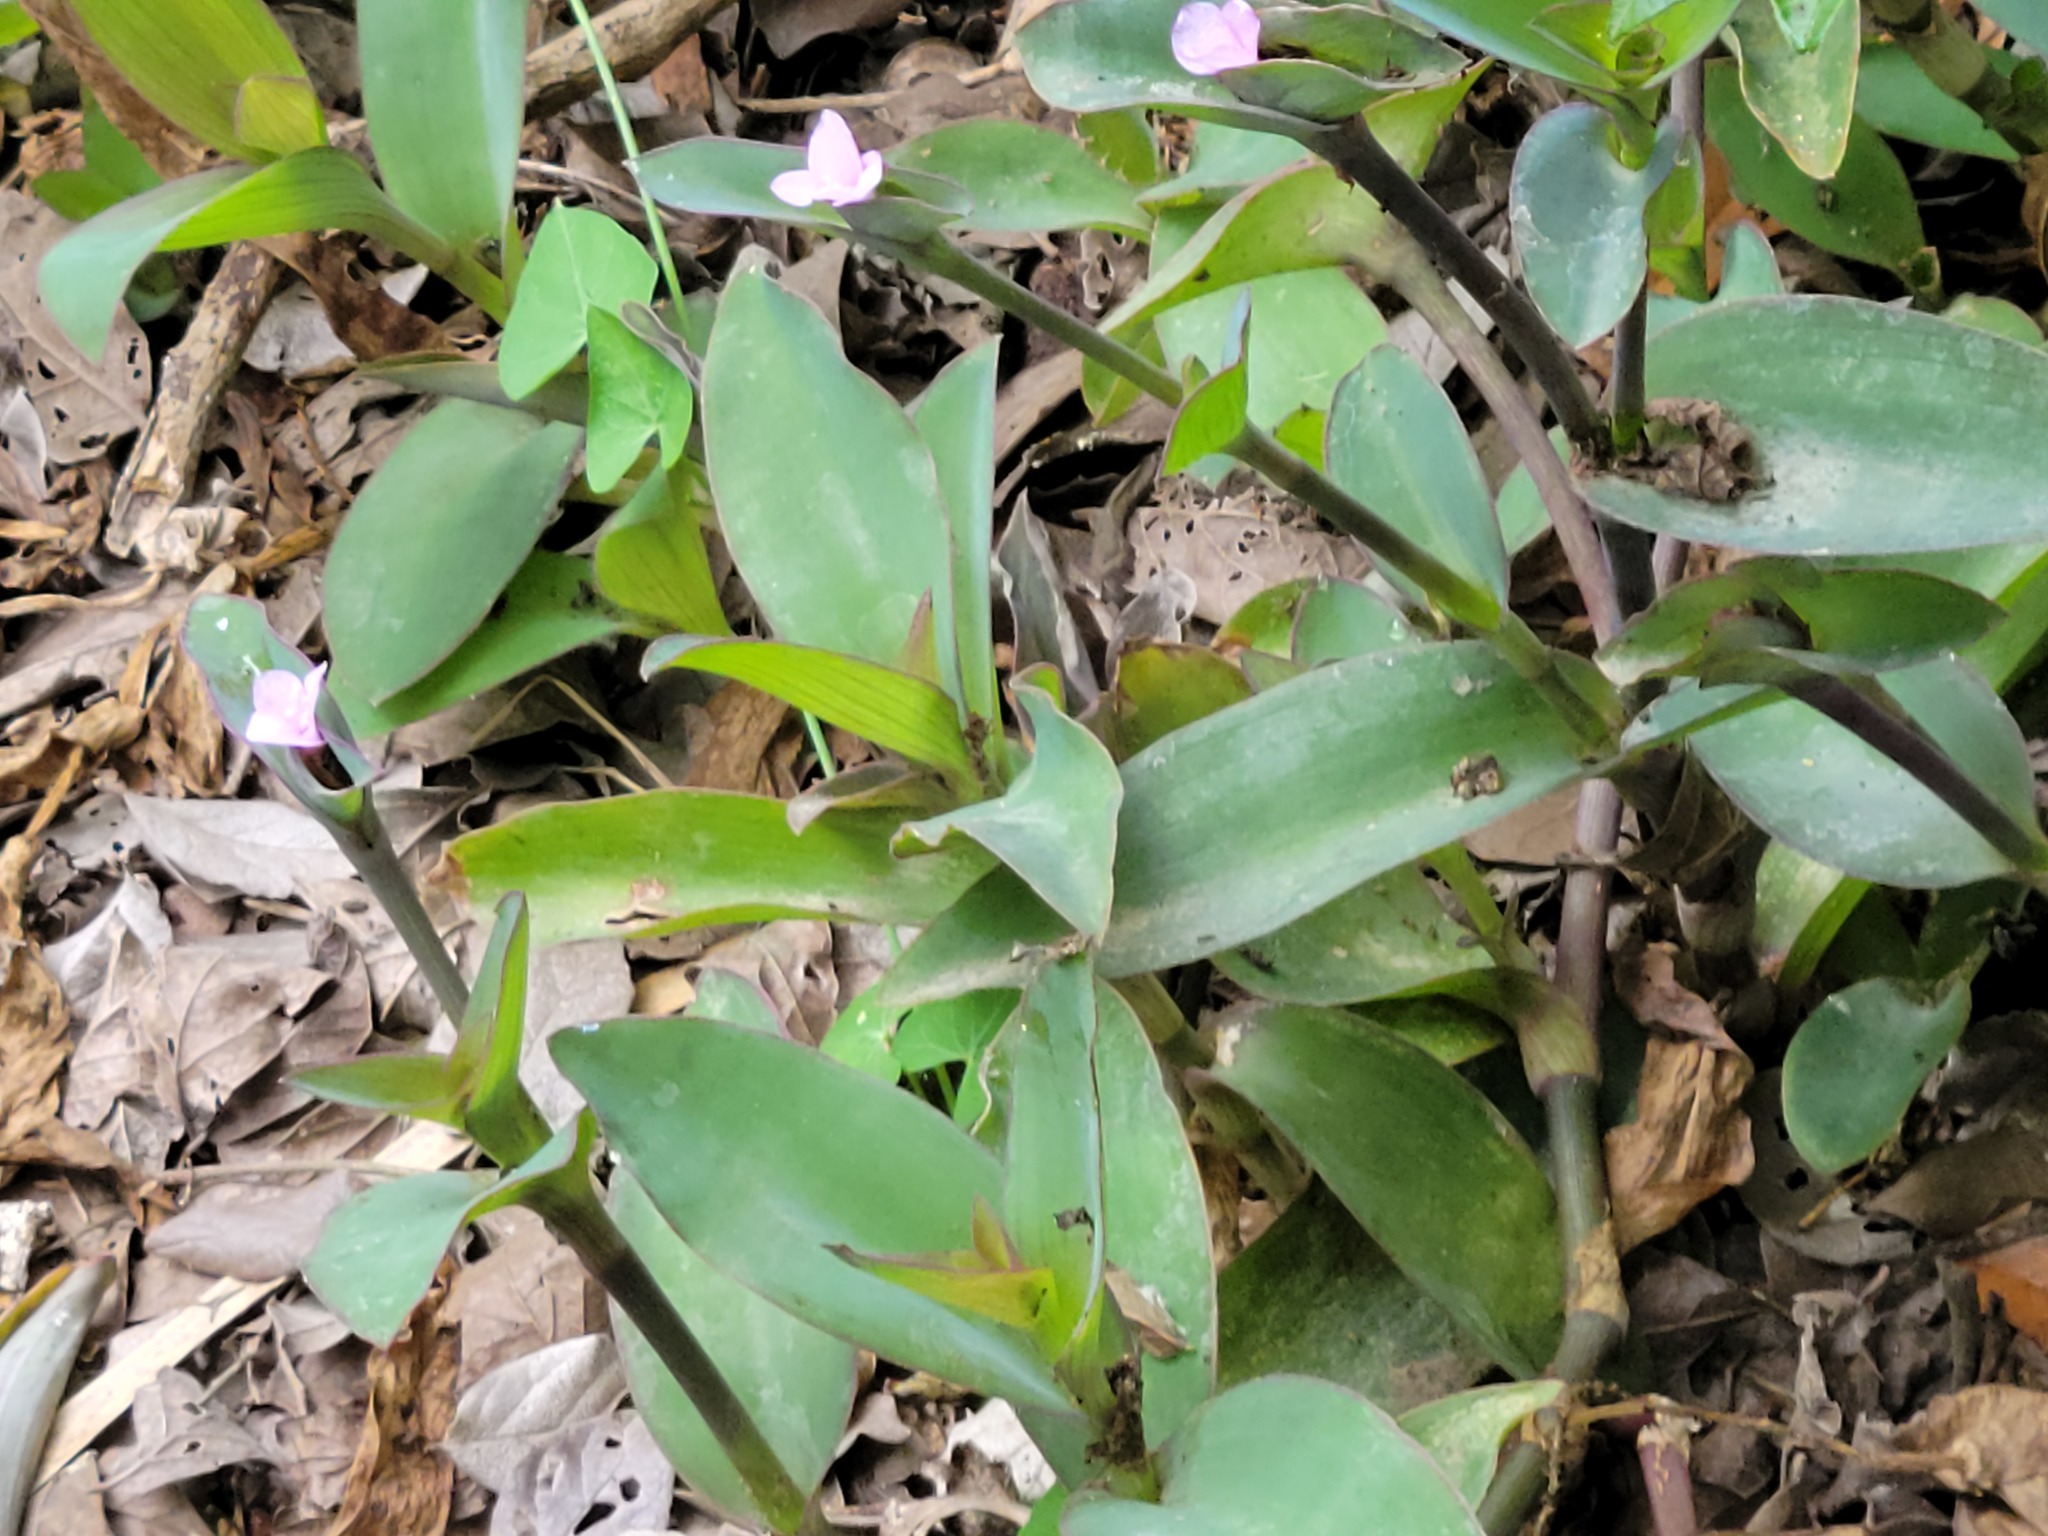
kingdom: Plantae
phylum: Tracheophyta
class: Liliopsida
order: Commelinales
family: Commelinaceae
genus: Tradescantia
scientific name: Tradescantia pallida
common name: Purpleheart
